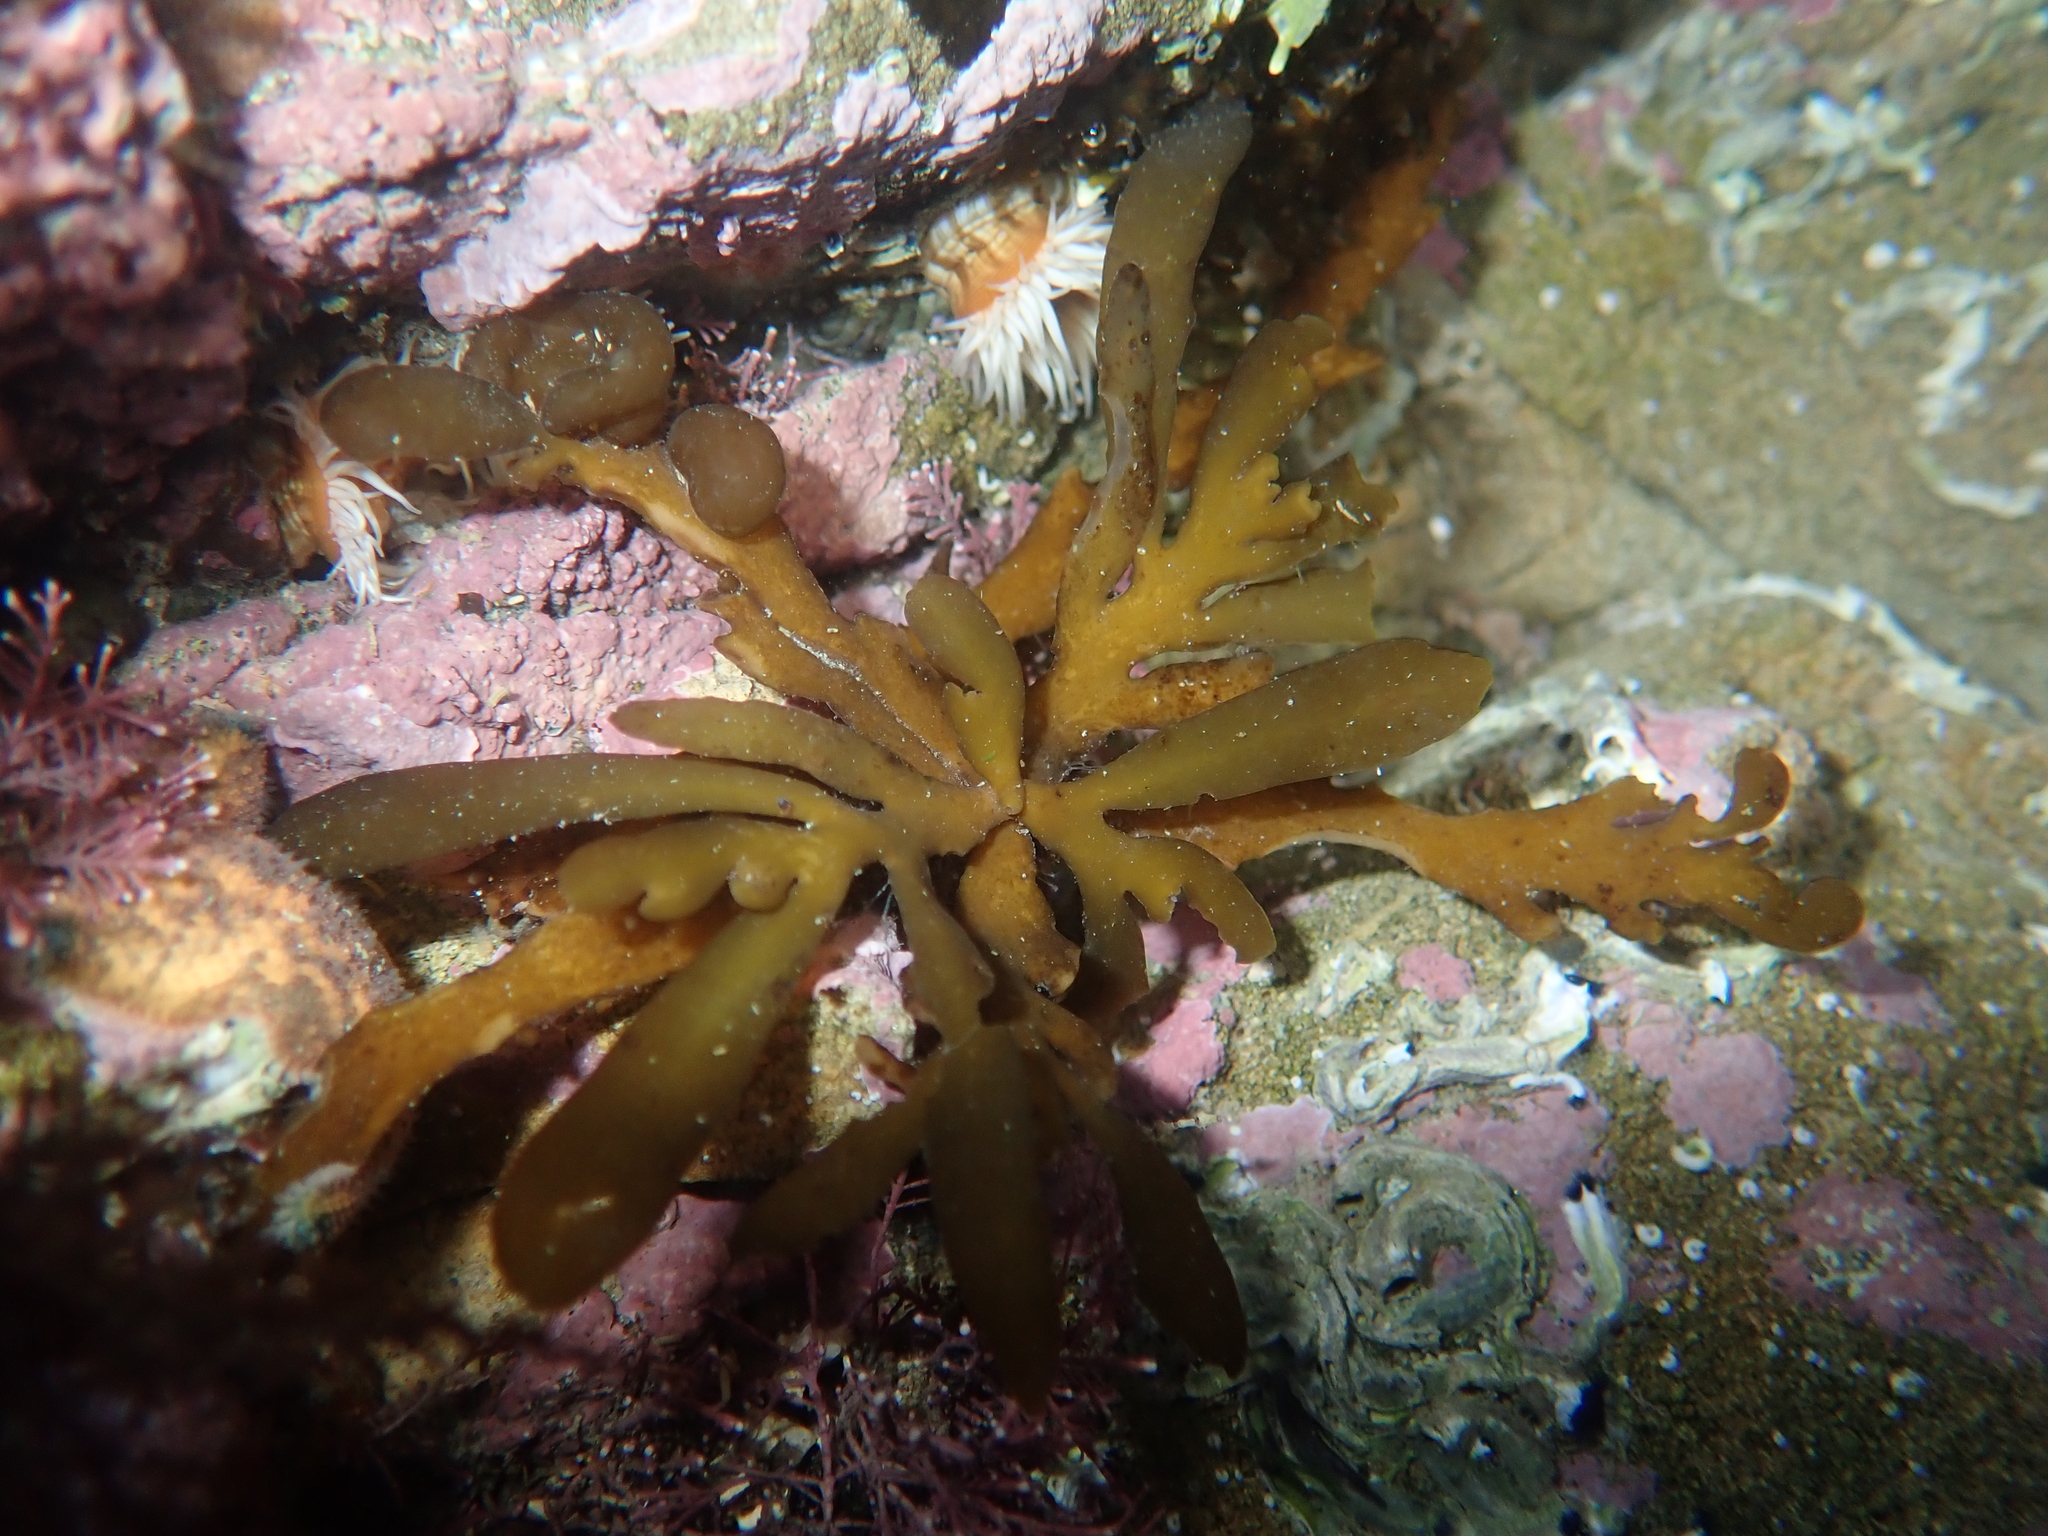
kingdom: Chromista
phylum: Ochrophyta
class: Phaeophyceae
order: Fucales
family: Sargassaceae
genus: Carpophyllum
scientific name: Carpophyllum maschalocarpum
